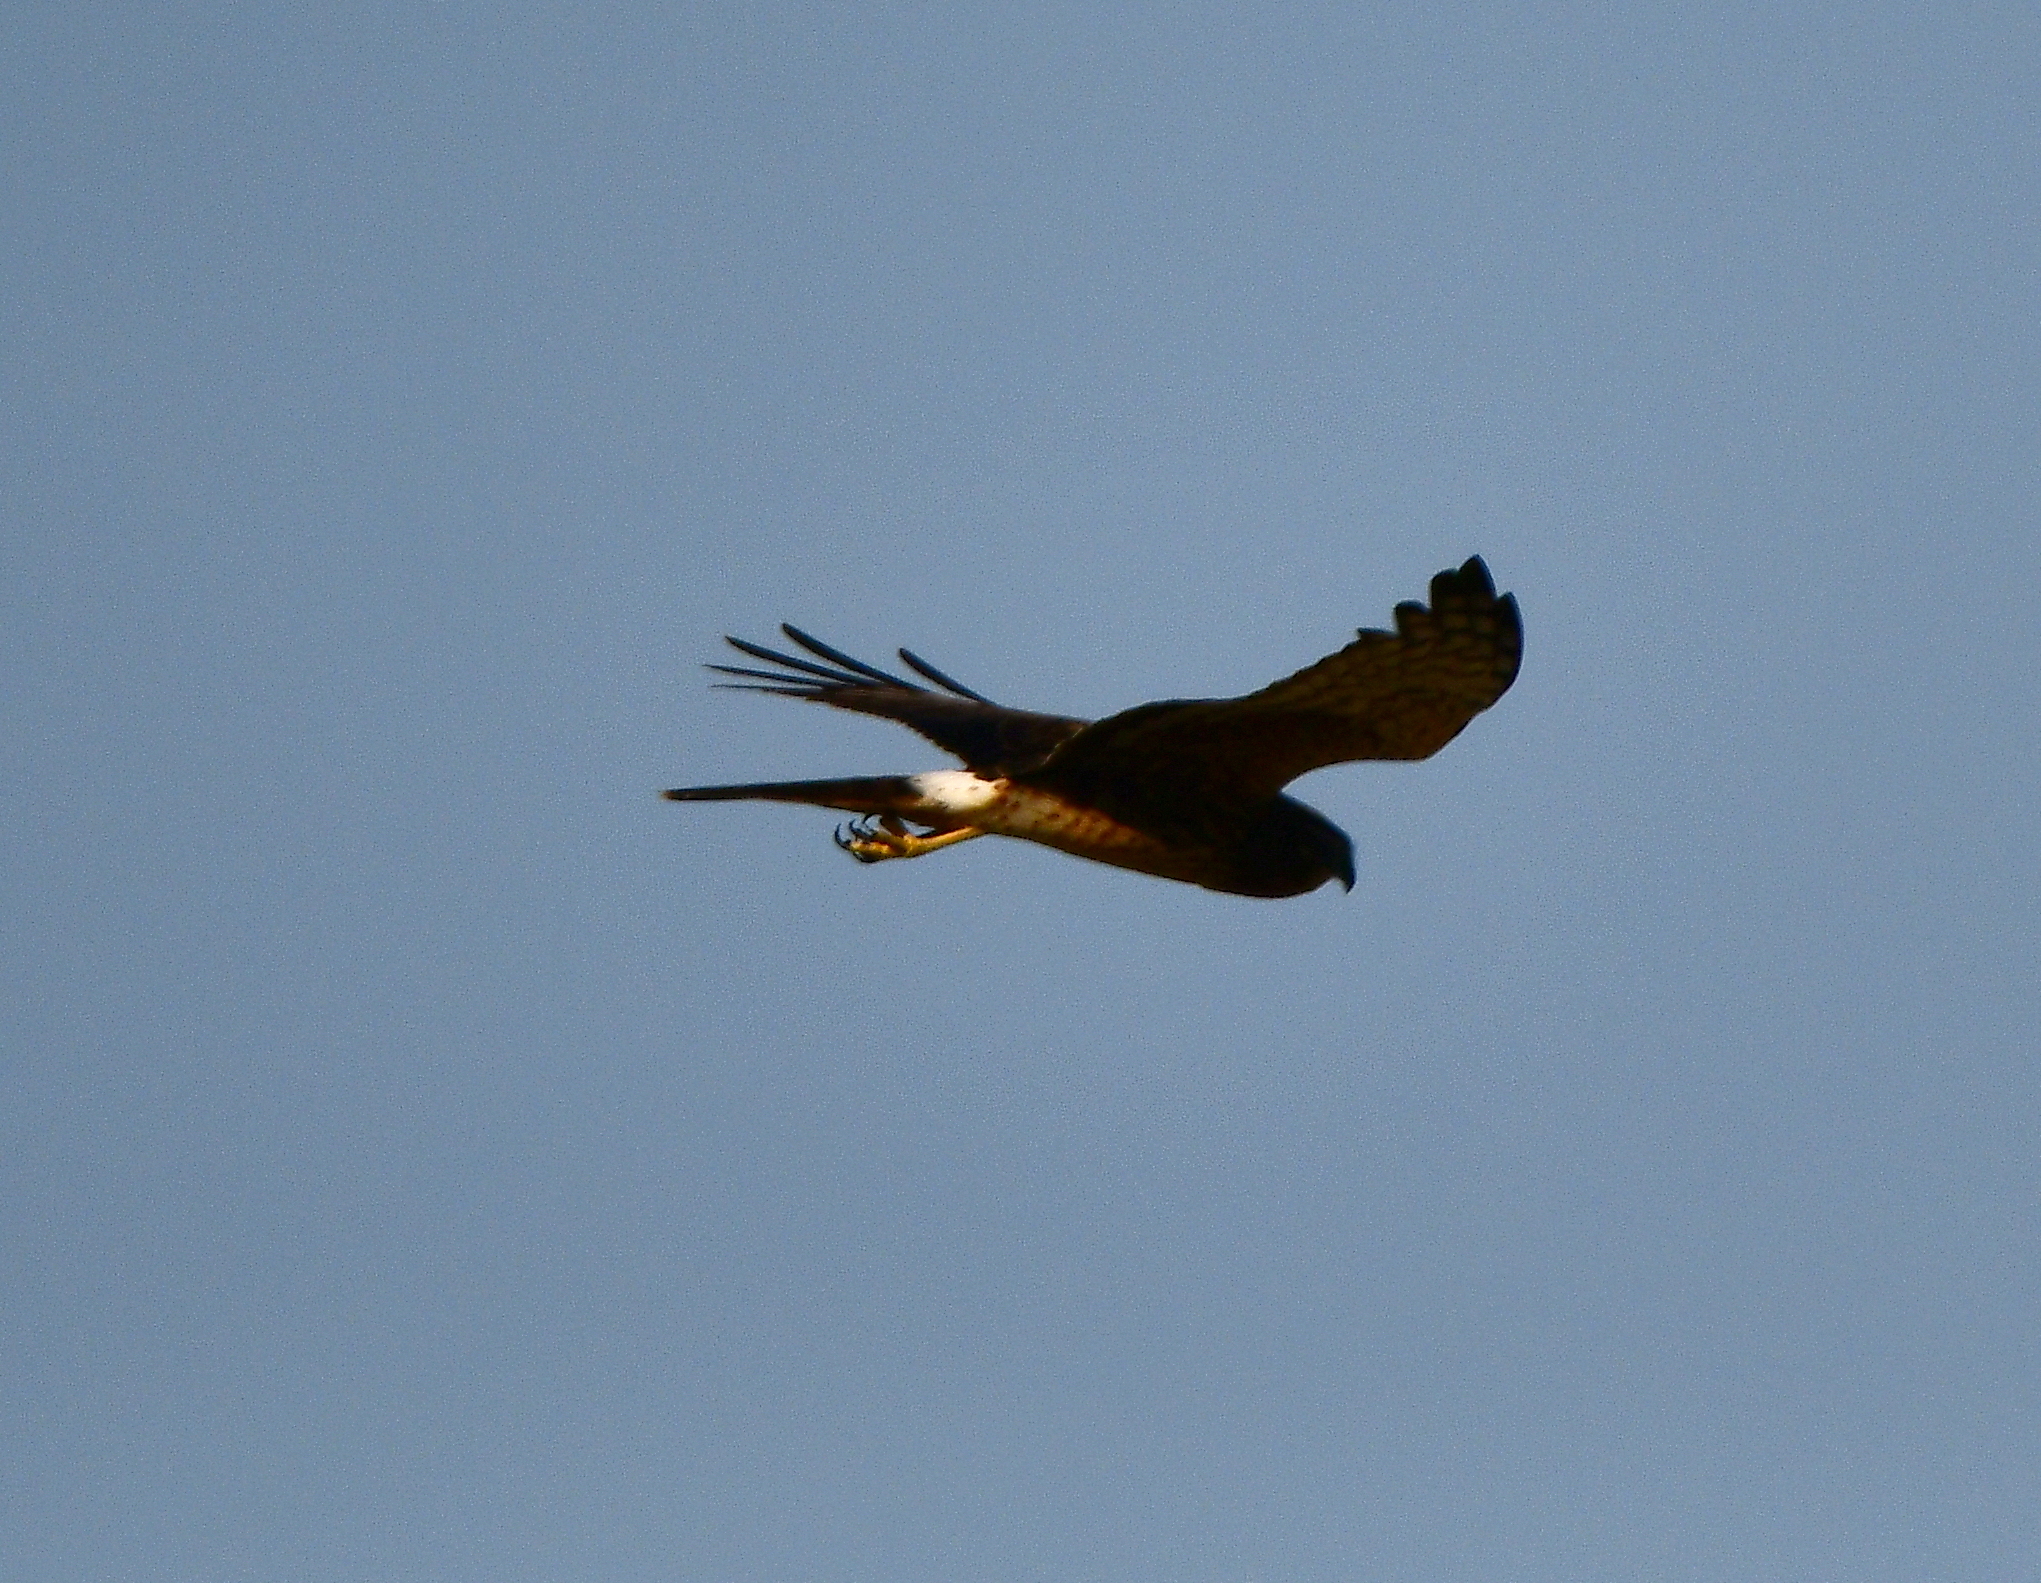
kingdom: Animalia
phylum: Chordata
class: Aves
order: Accipitriformes
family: Accipitridae
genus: Circus
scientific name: Circus cyaneus
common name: Hen harrier
